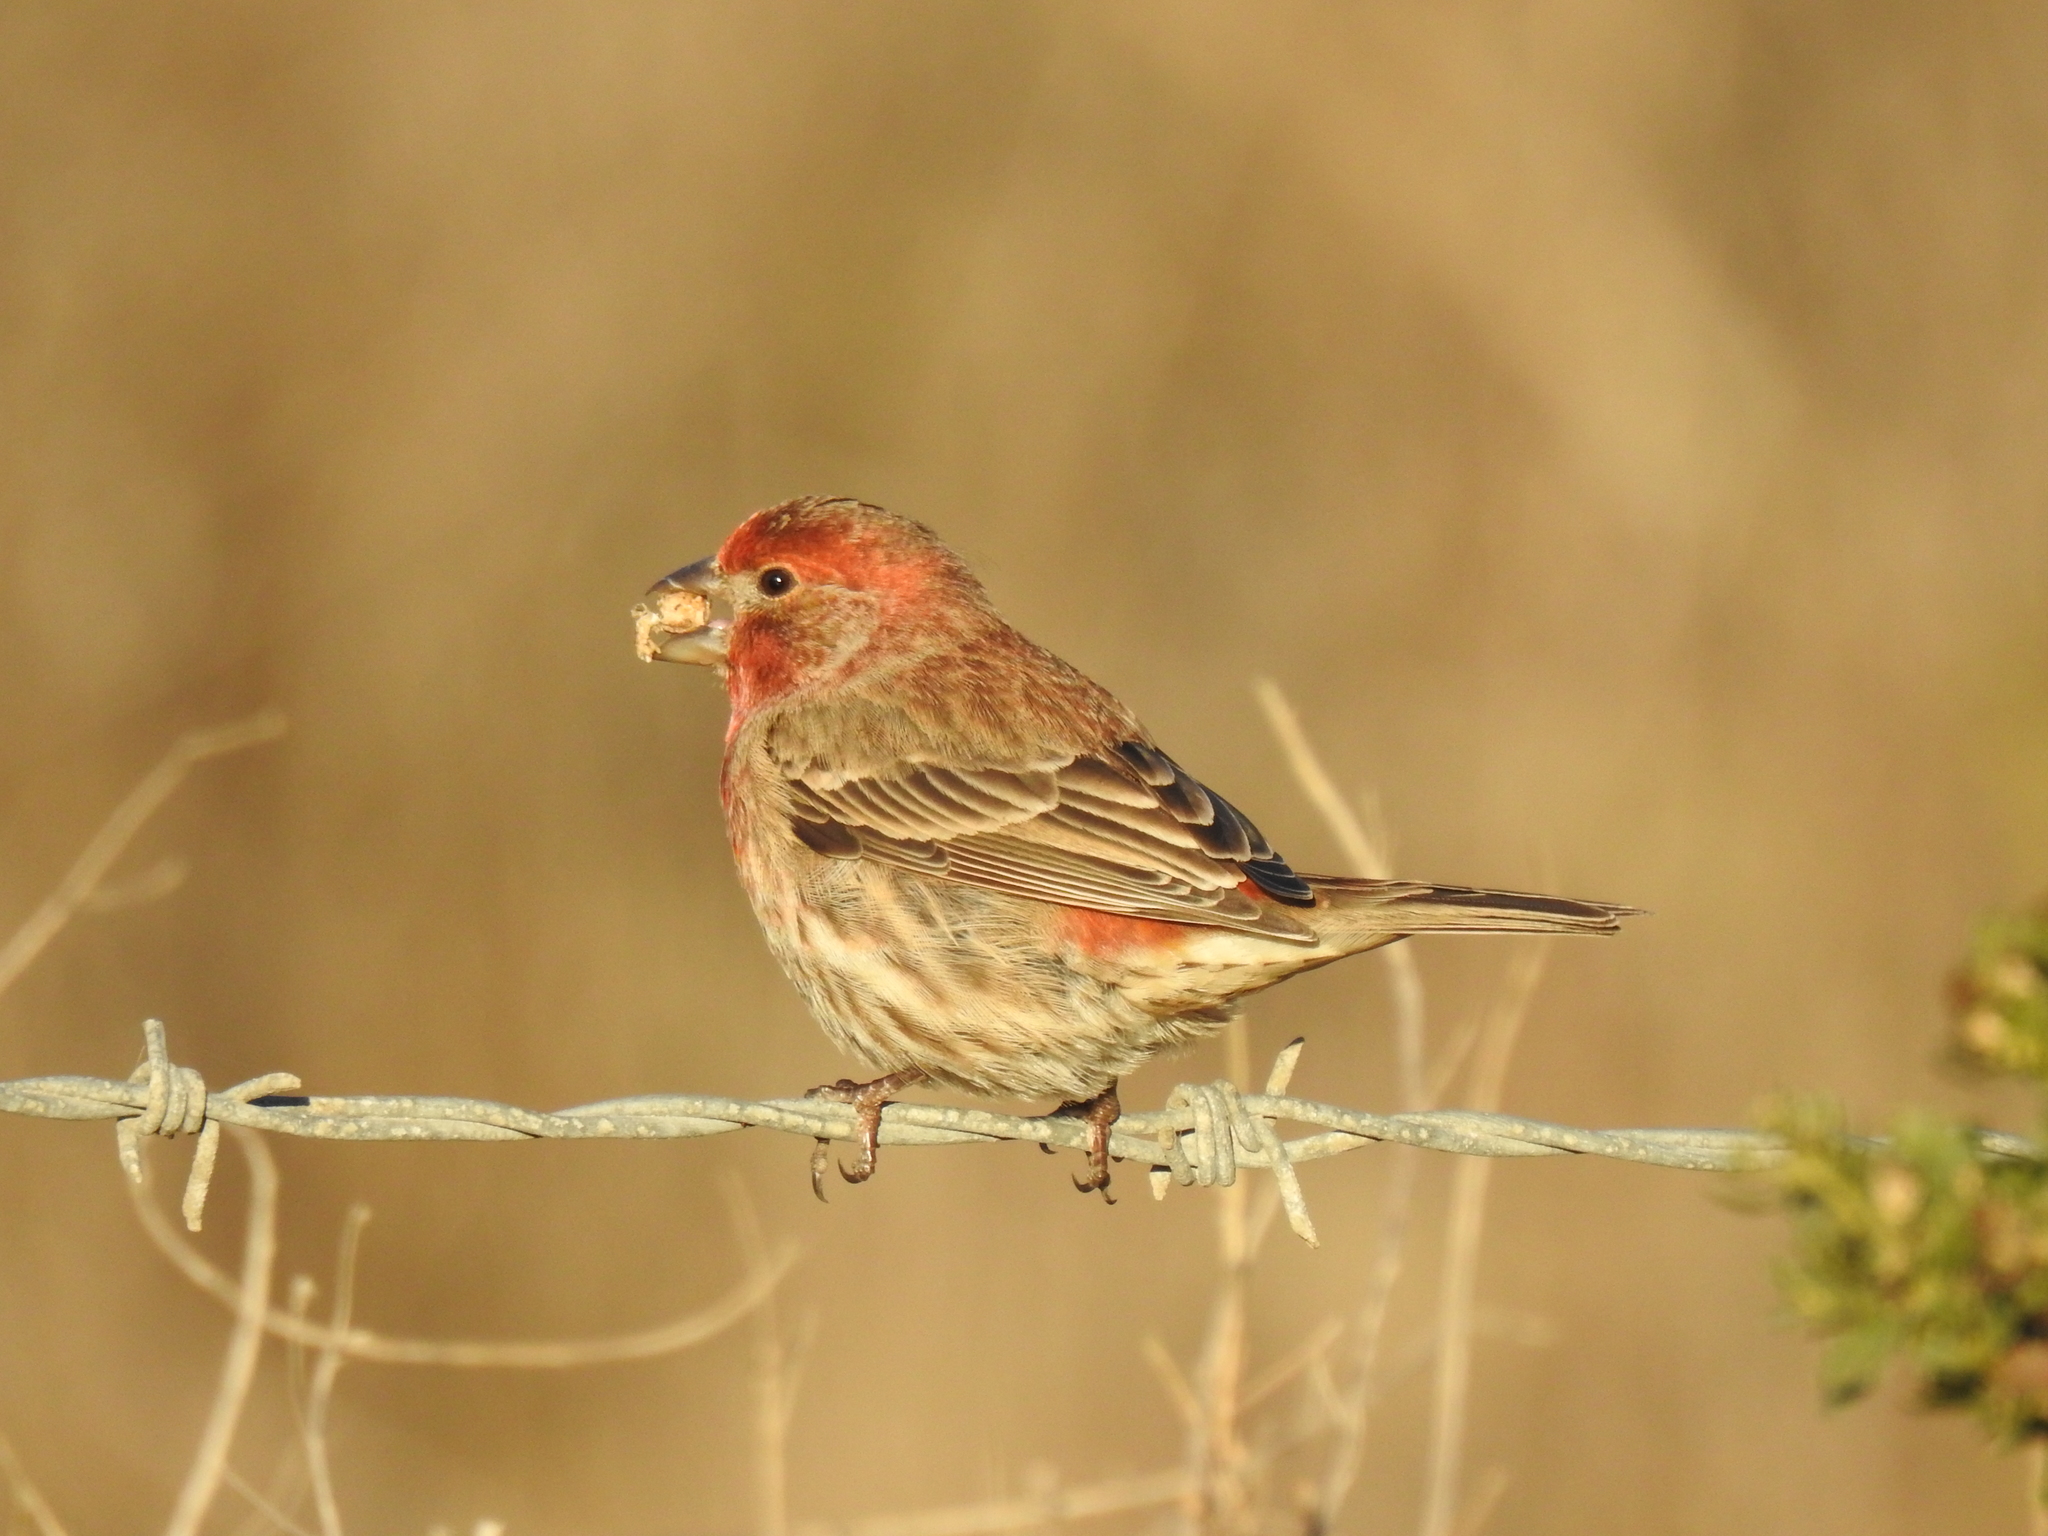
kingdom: Animalia
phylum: Chordata
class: Aves
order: Passeriformes
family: Fringillidae
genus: Haemorhous
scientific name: Haemorhous mexicanus
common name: House finch
